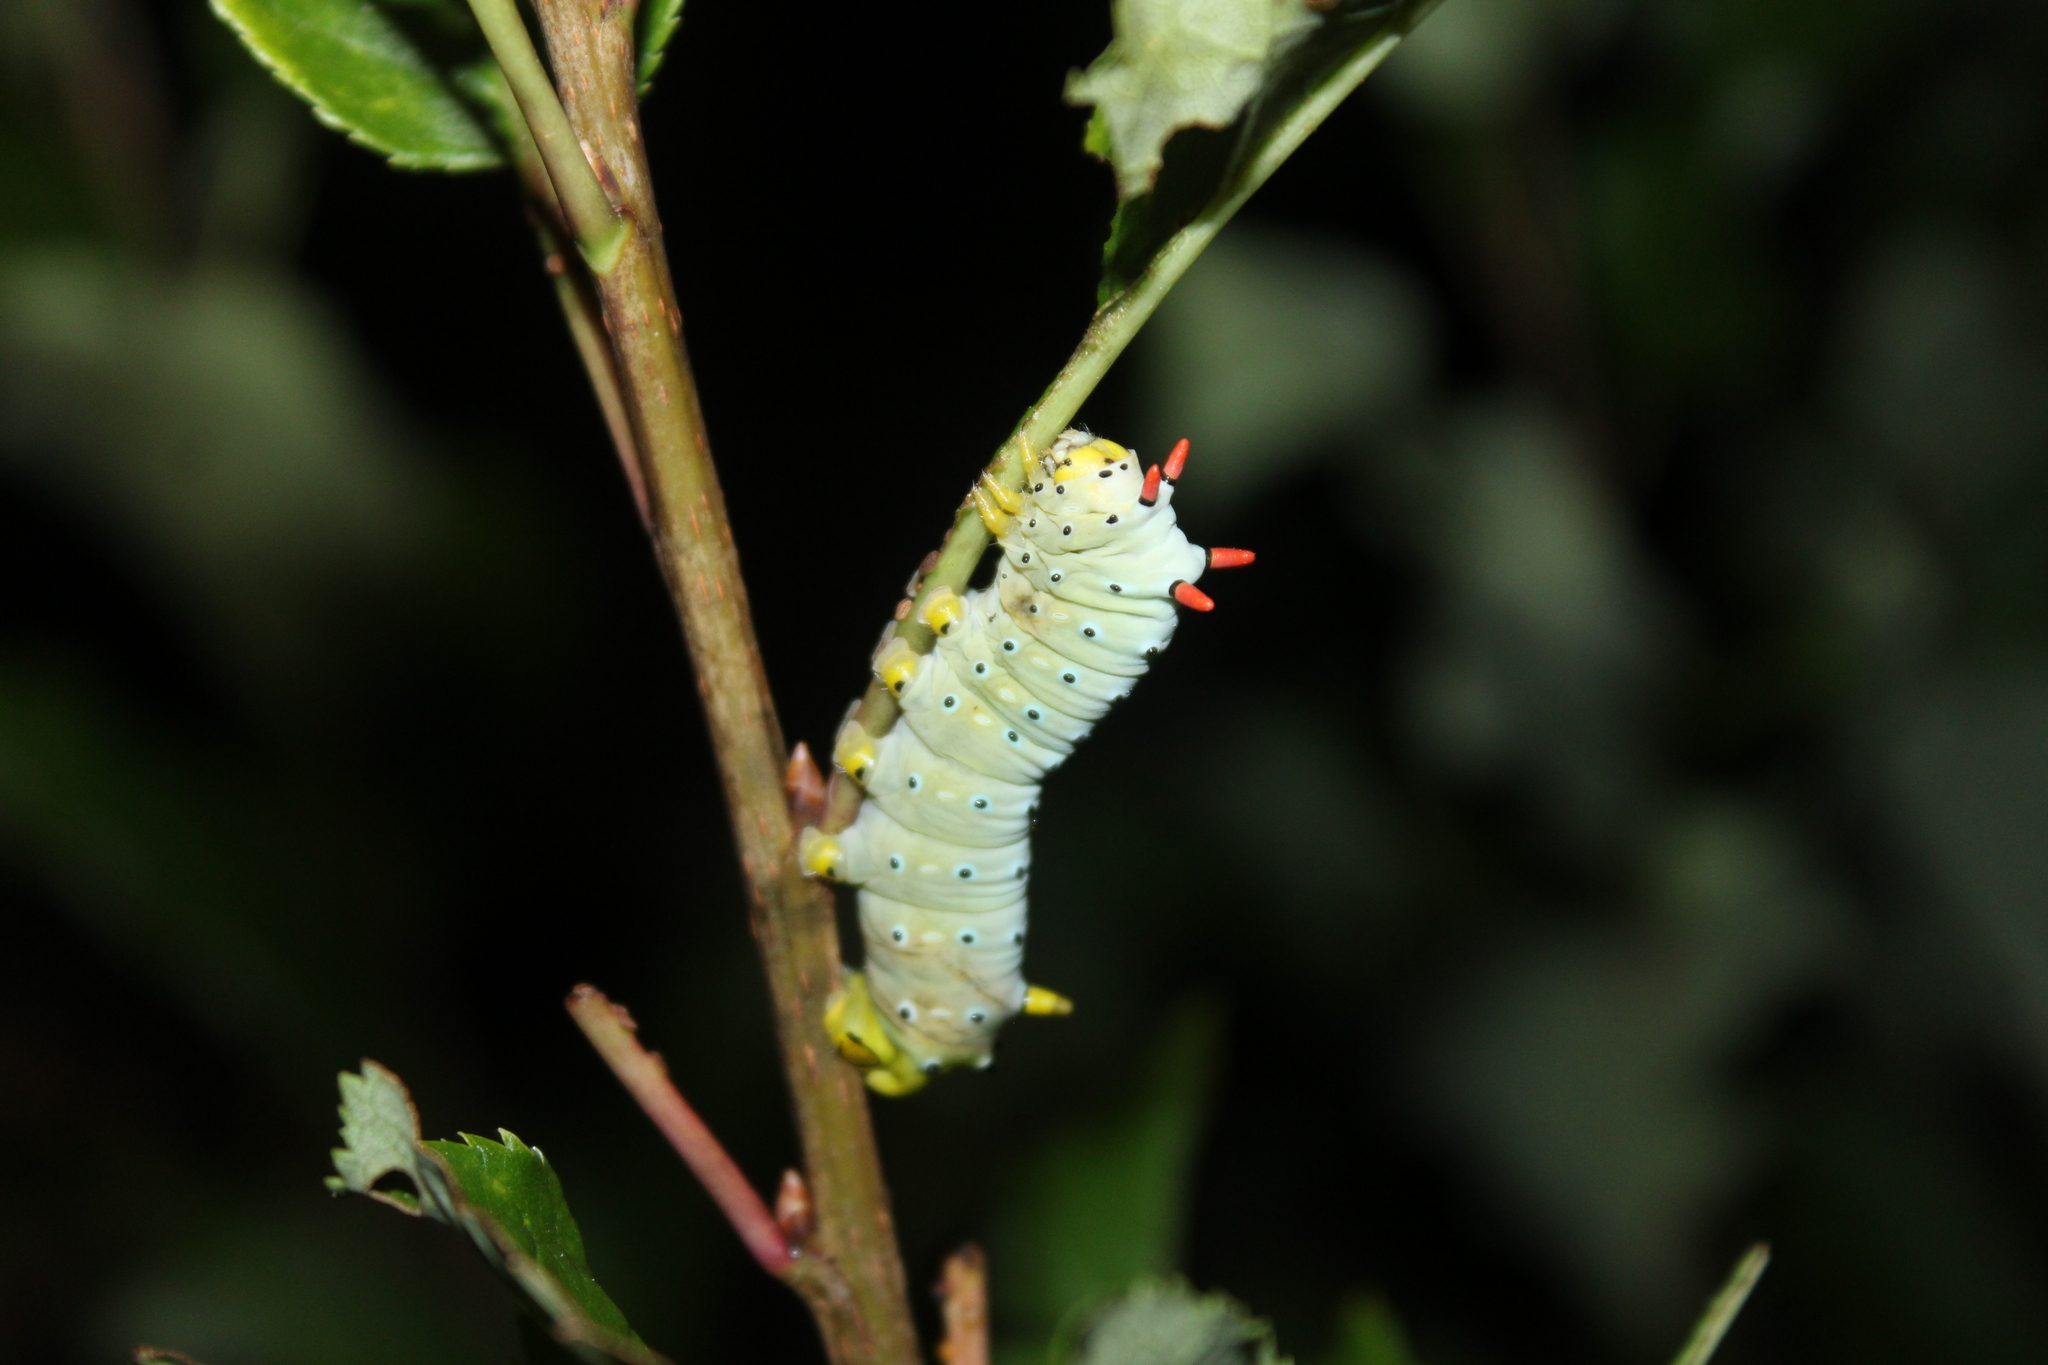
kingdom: Animalia
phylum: Arthropoda
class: Insecta
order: Lepidoptera
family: Saturniidae
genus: Callosamia
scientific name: Callosamia promethea
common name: Promethea silkmoth
